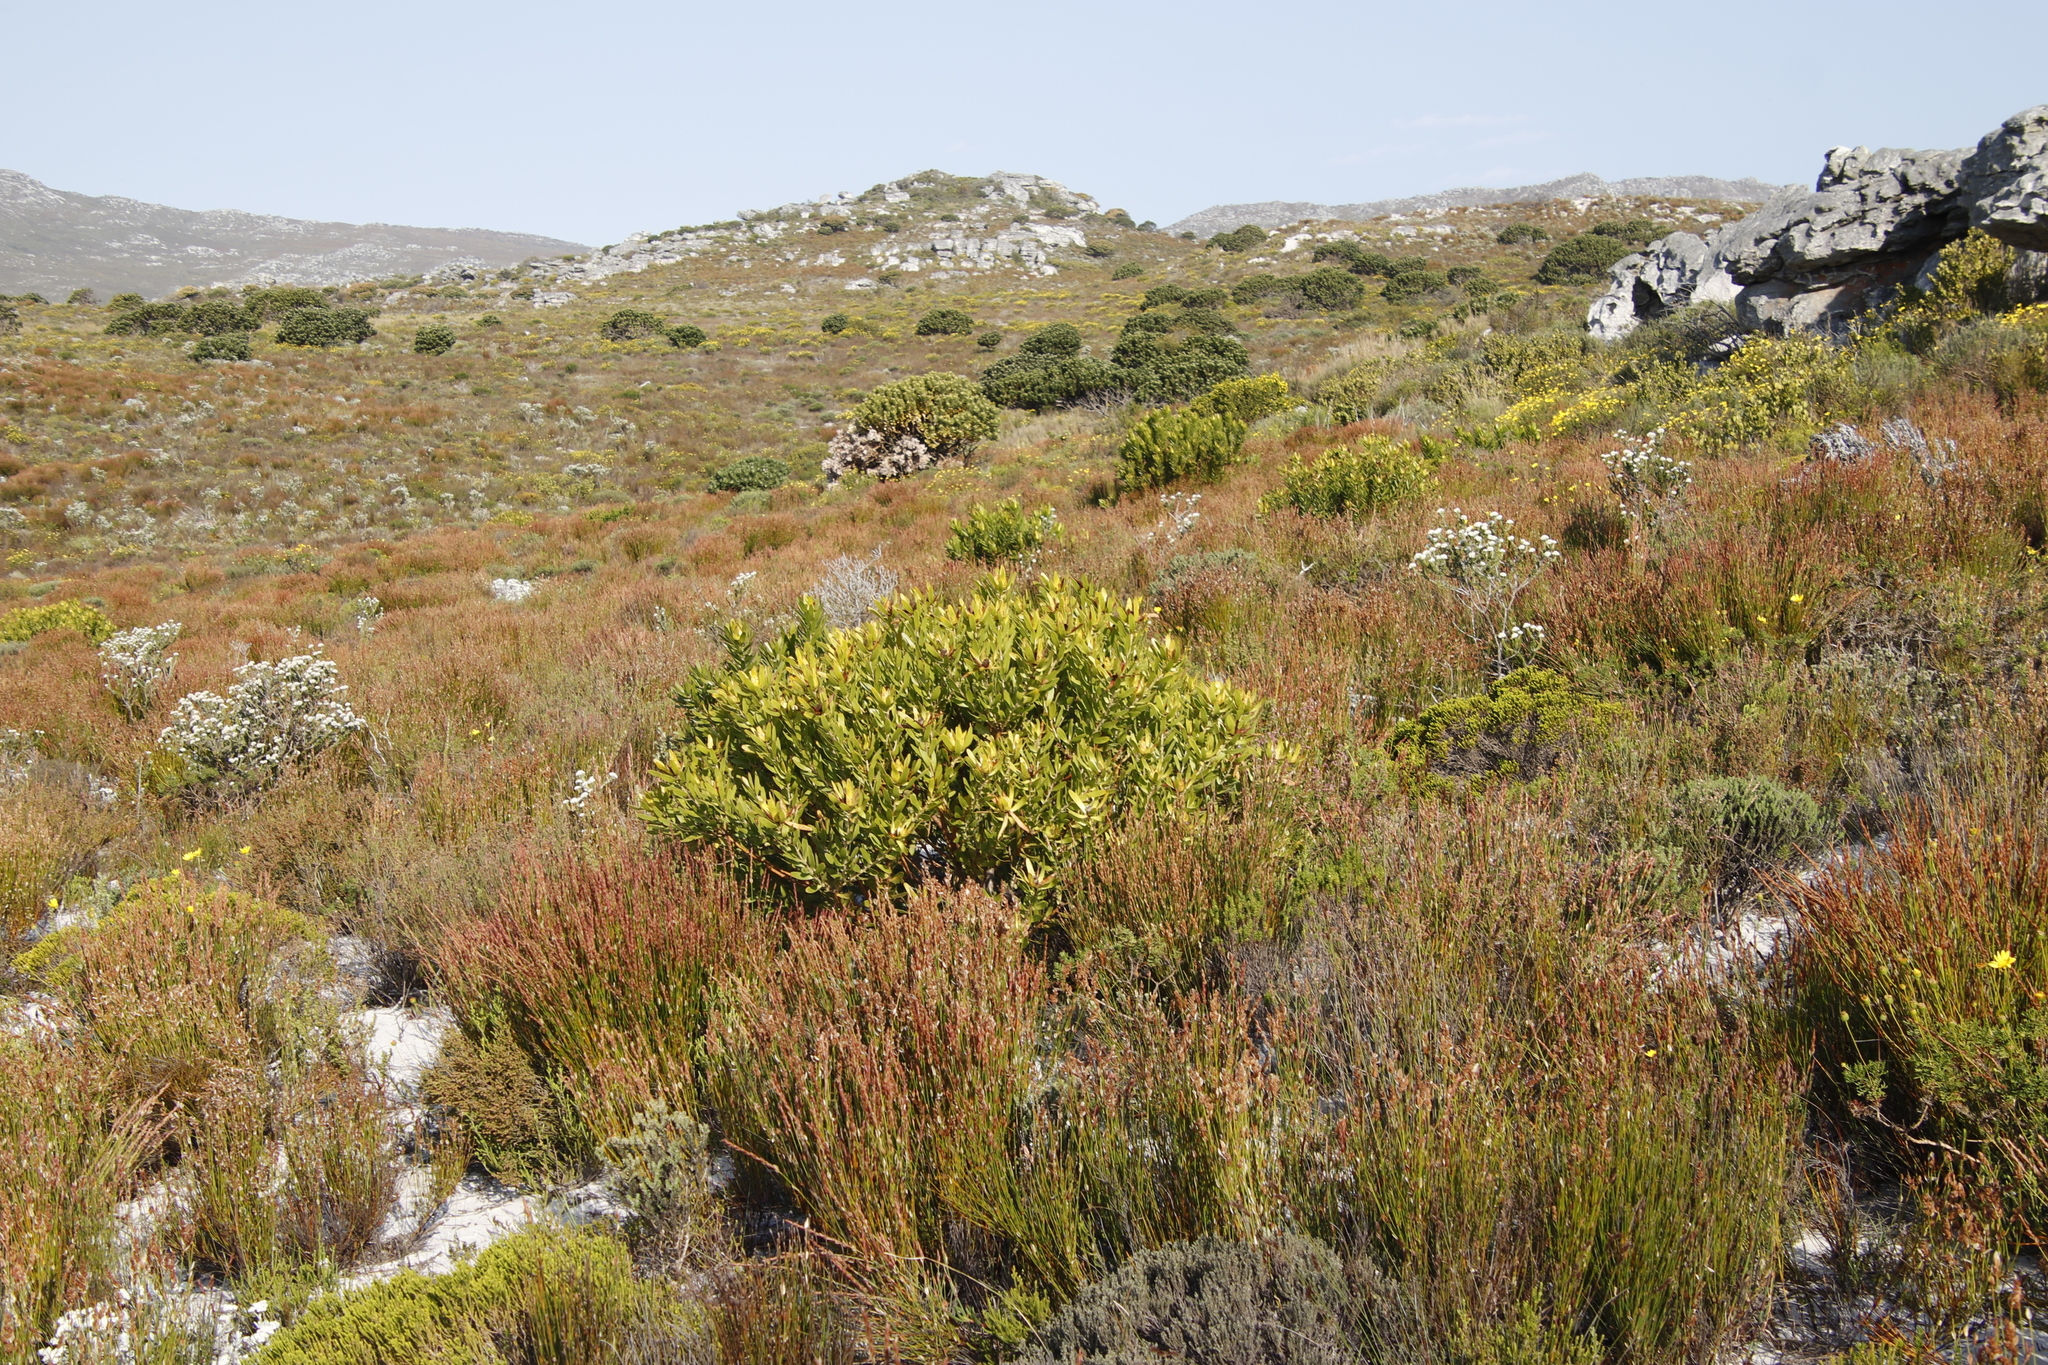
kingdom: Plantae
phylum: Tracheophyta
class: Magnoliopsida
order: Proteales
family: Proteaceae
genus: Leucadendron
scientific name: Leucadendron laureolum
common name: Golden sunshinebush
